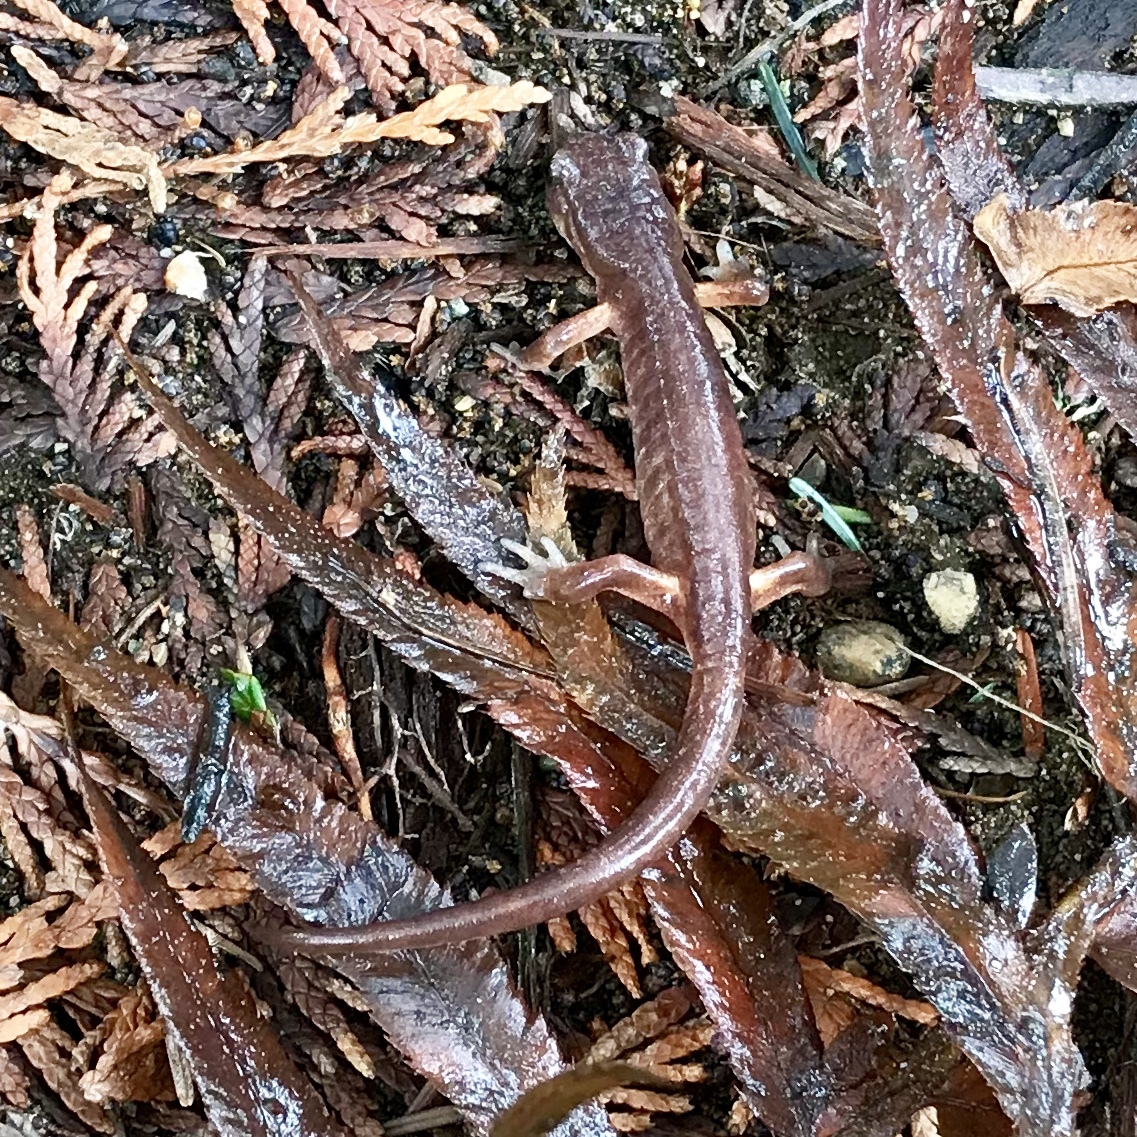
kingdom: Animalia
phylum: Chordata
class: Amphibia
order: Caudata
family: Plethodontidae
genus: Ensatina
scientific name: Ensatina eschscholtzii
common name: Ensatina
